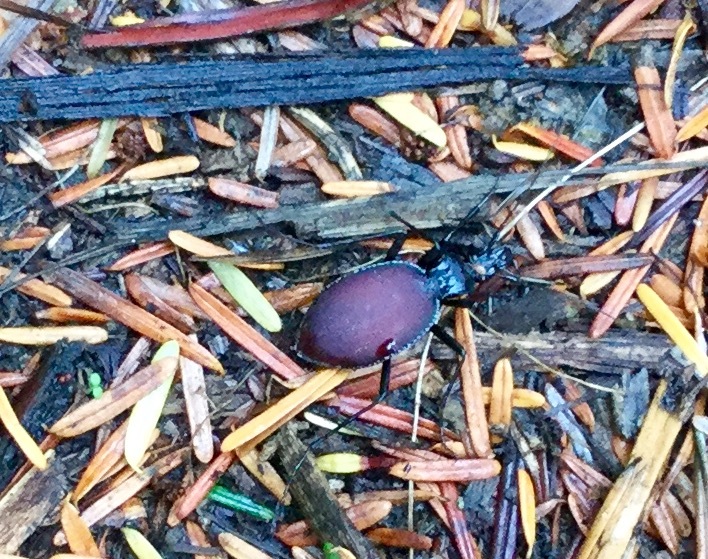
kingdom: Animalia
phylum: Arthropoda
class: Insecta
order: Coleoptera
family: Carabidae
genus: Scaphinotus
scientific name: Scaphinotus angusticollis
